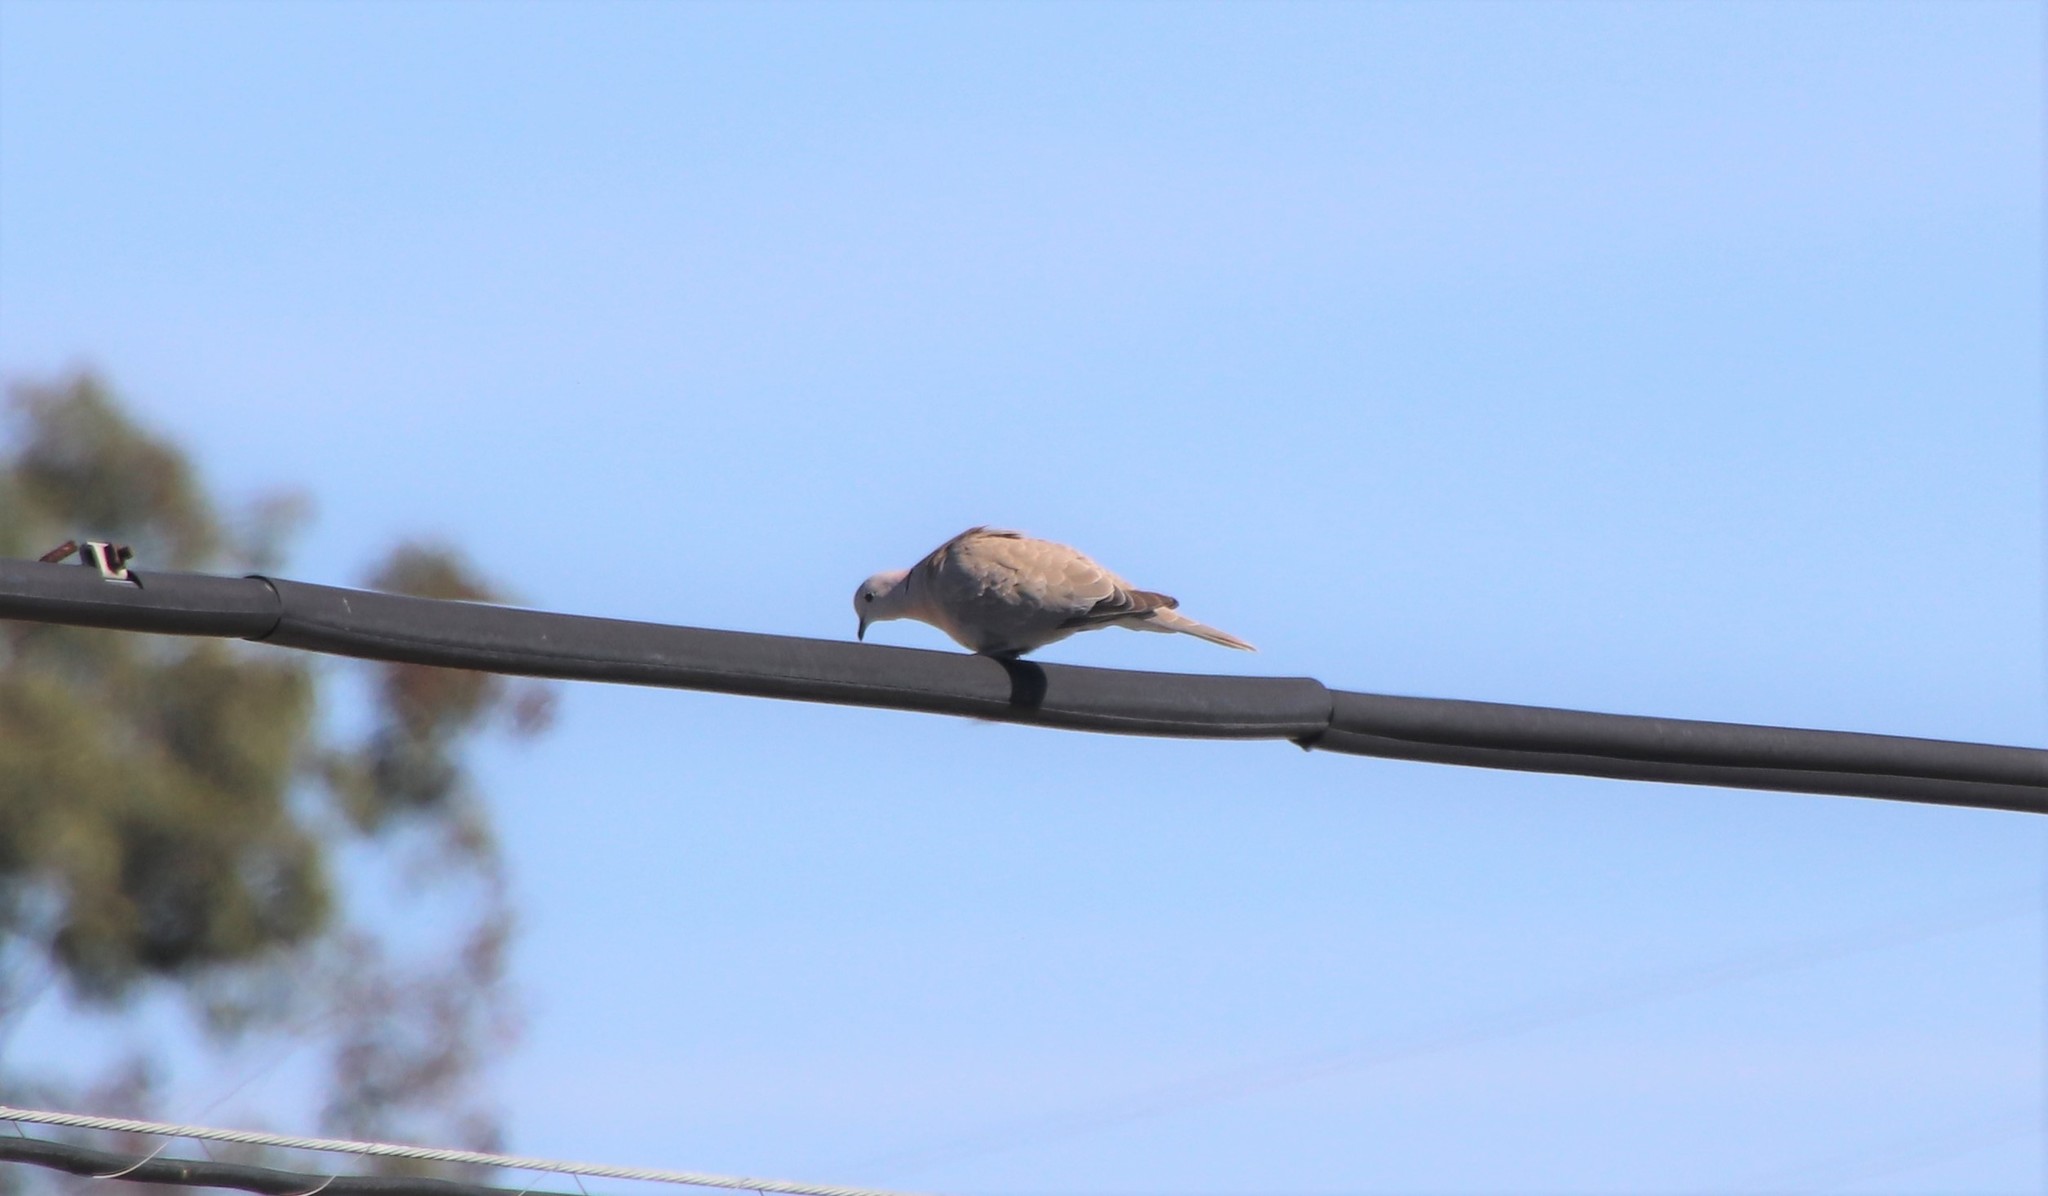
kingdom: Animalia
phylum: Chordata
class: Aves
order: Columbiformes
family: Columbidae
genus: Streptopelia
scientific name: Streptopelia decaocto
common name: Eurasian collared dove
